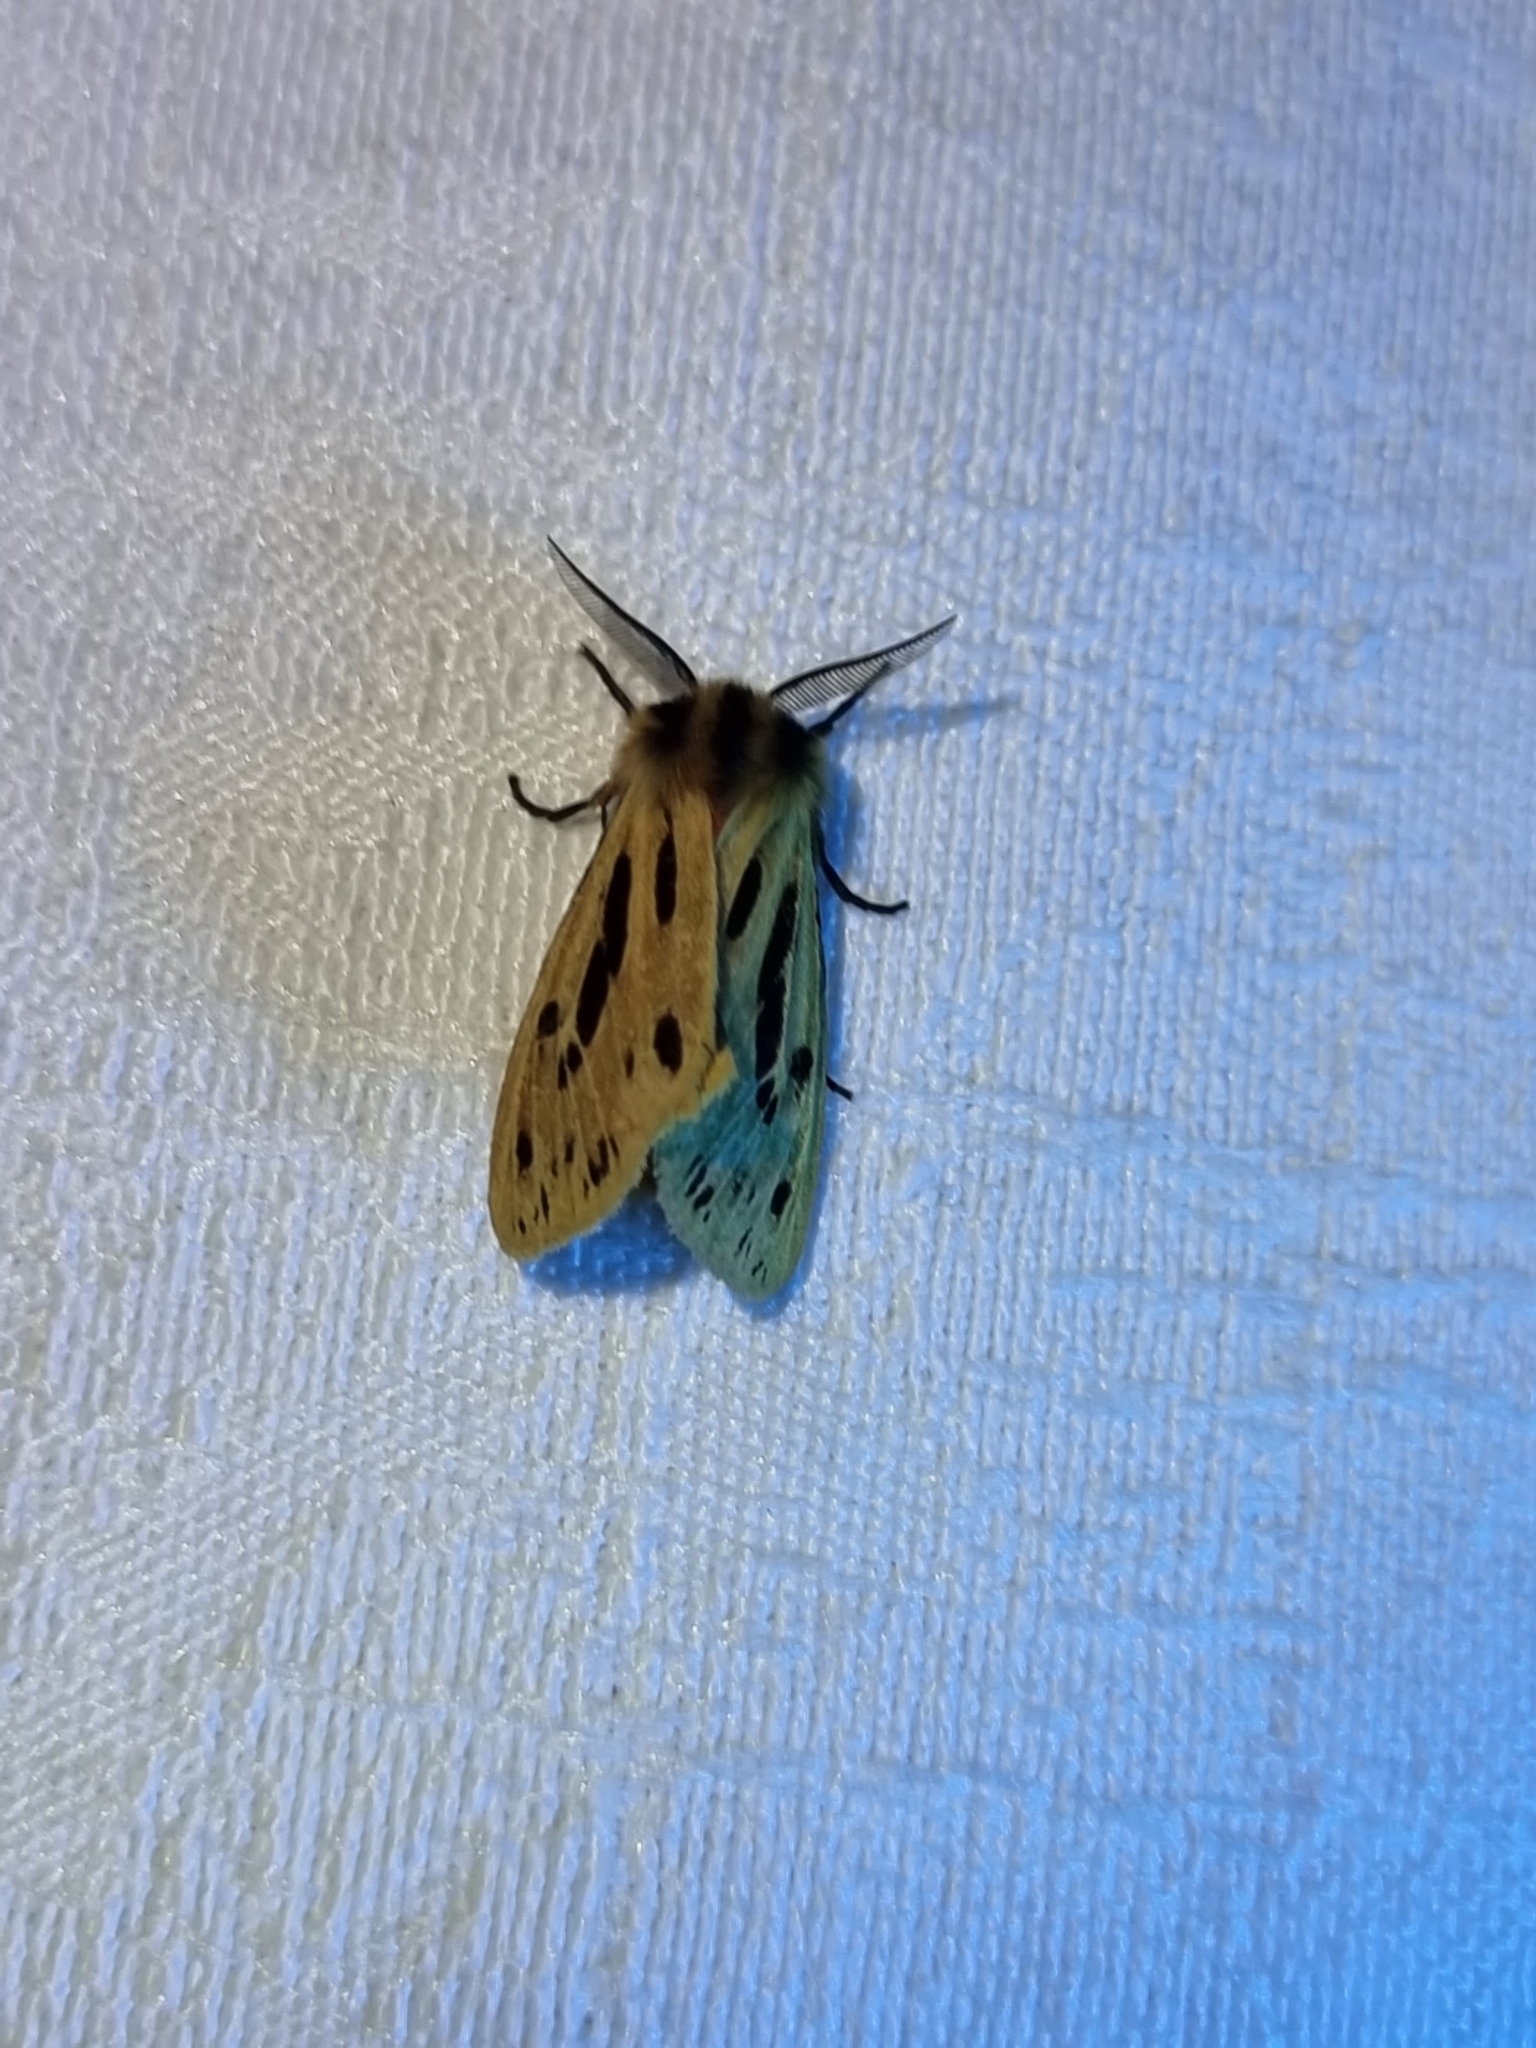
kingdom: Animalia
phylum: Arthropoda
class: Insecta
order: Lepidoptera
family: Erebidae
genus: Ardices
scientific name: Ardices curvata
